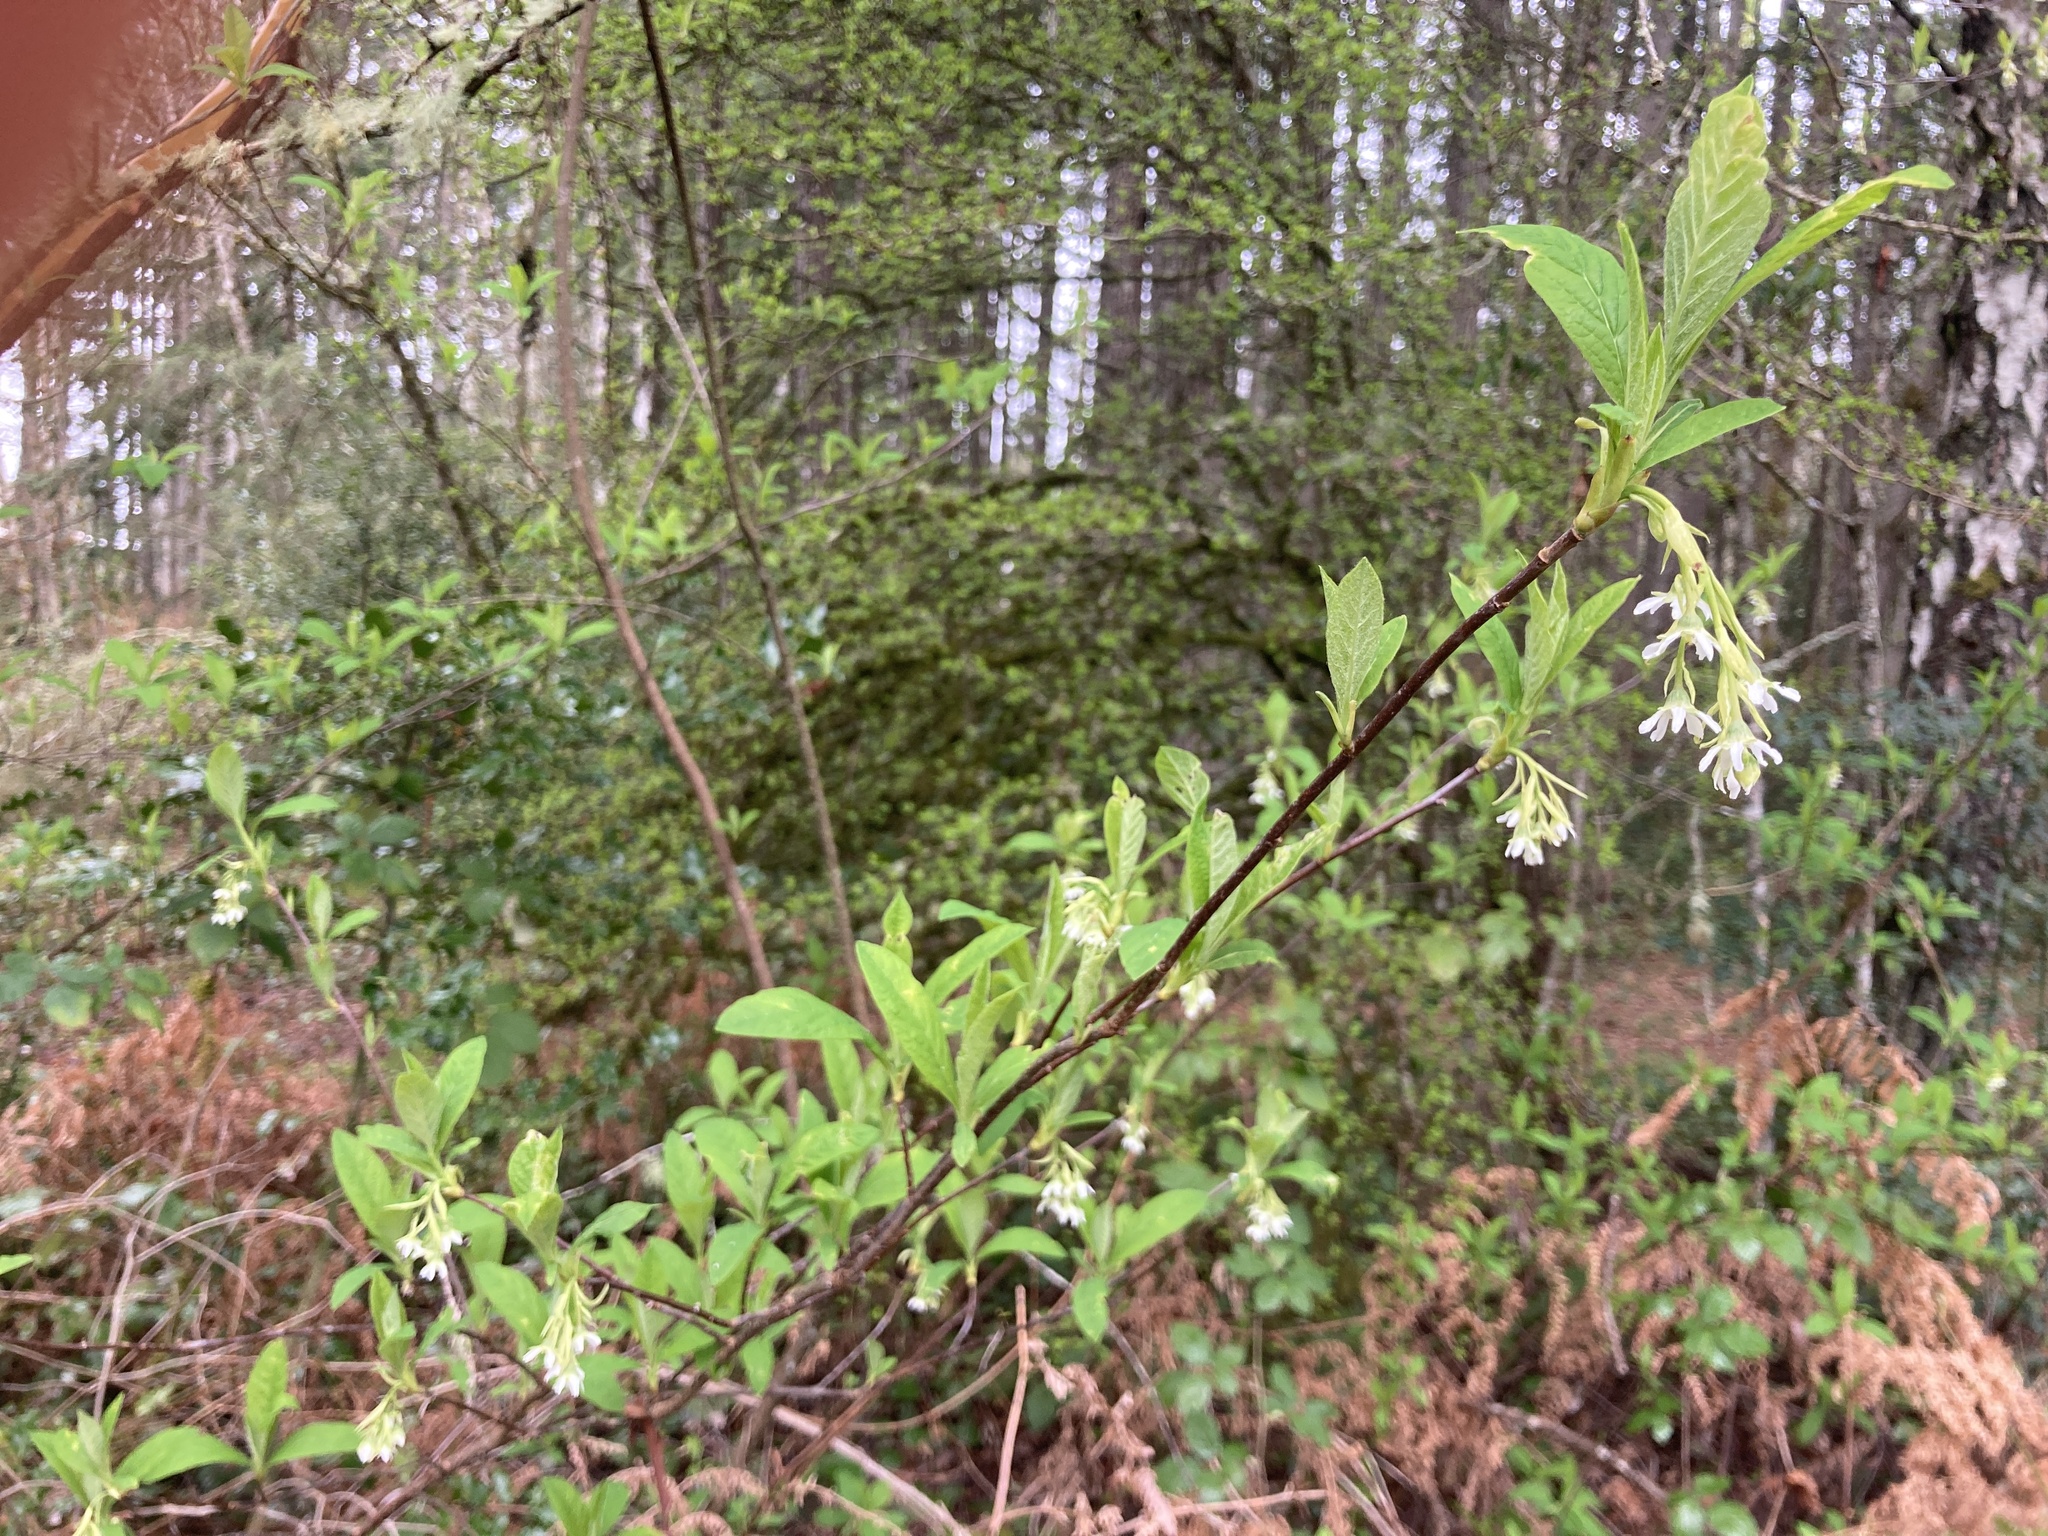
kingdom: Plantae
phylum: Tracheophyta
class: Magnoliopsida
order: Rosales
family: Rosaceae
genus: Oemleria
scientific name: Oemleria cerasiformis
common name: Osoberry
